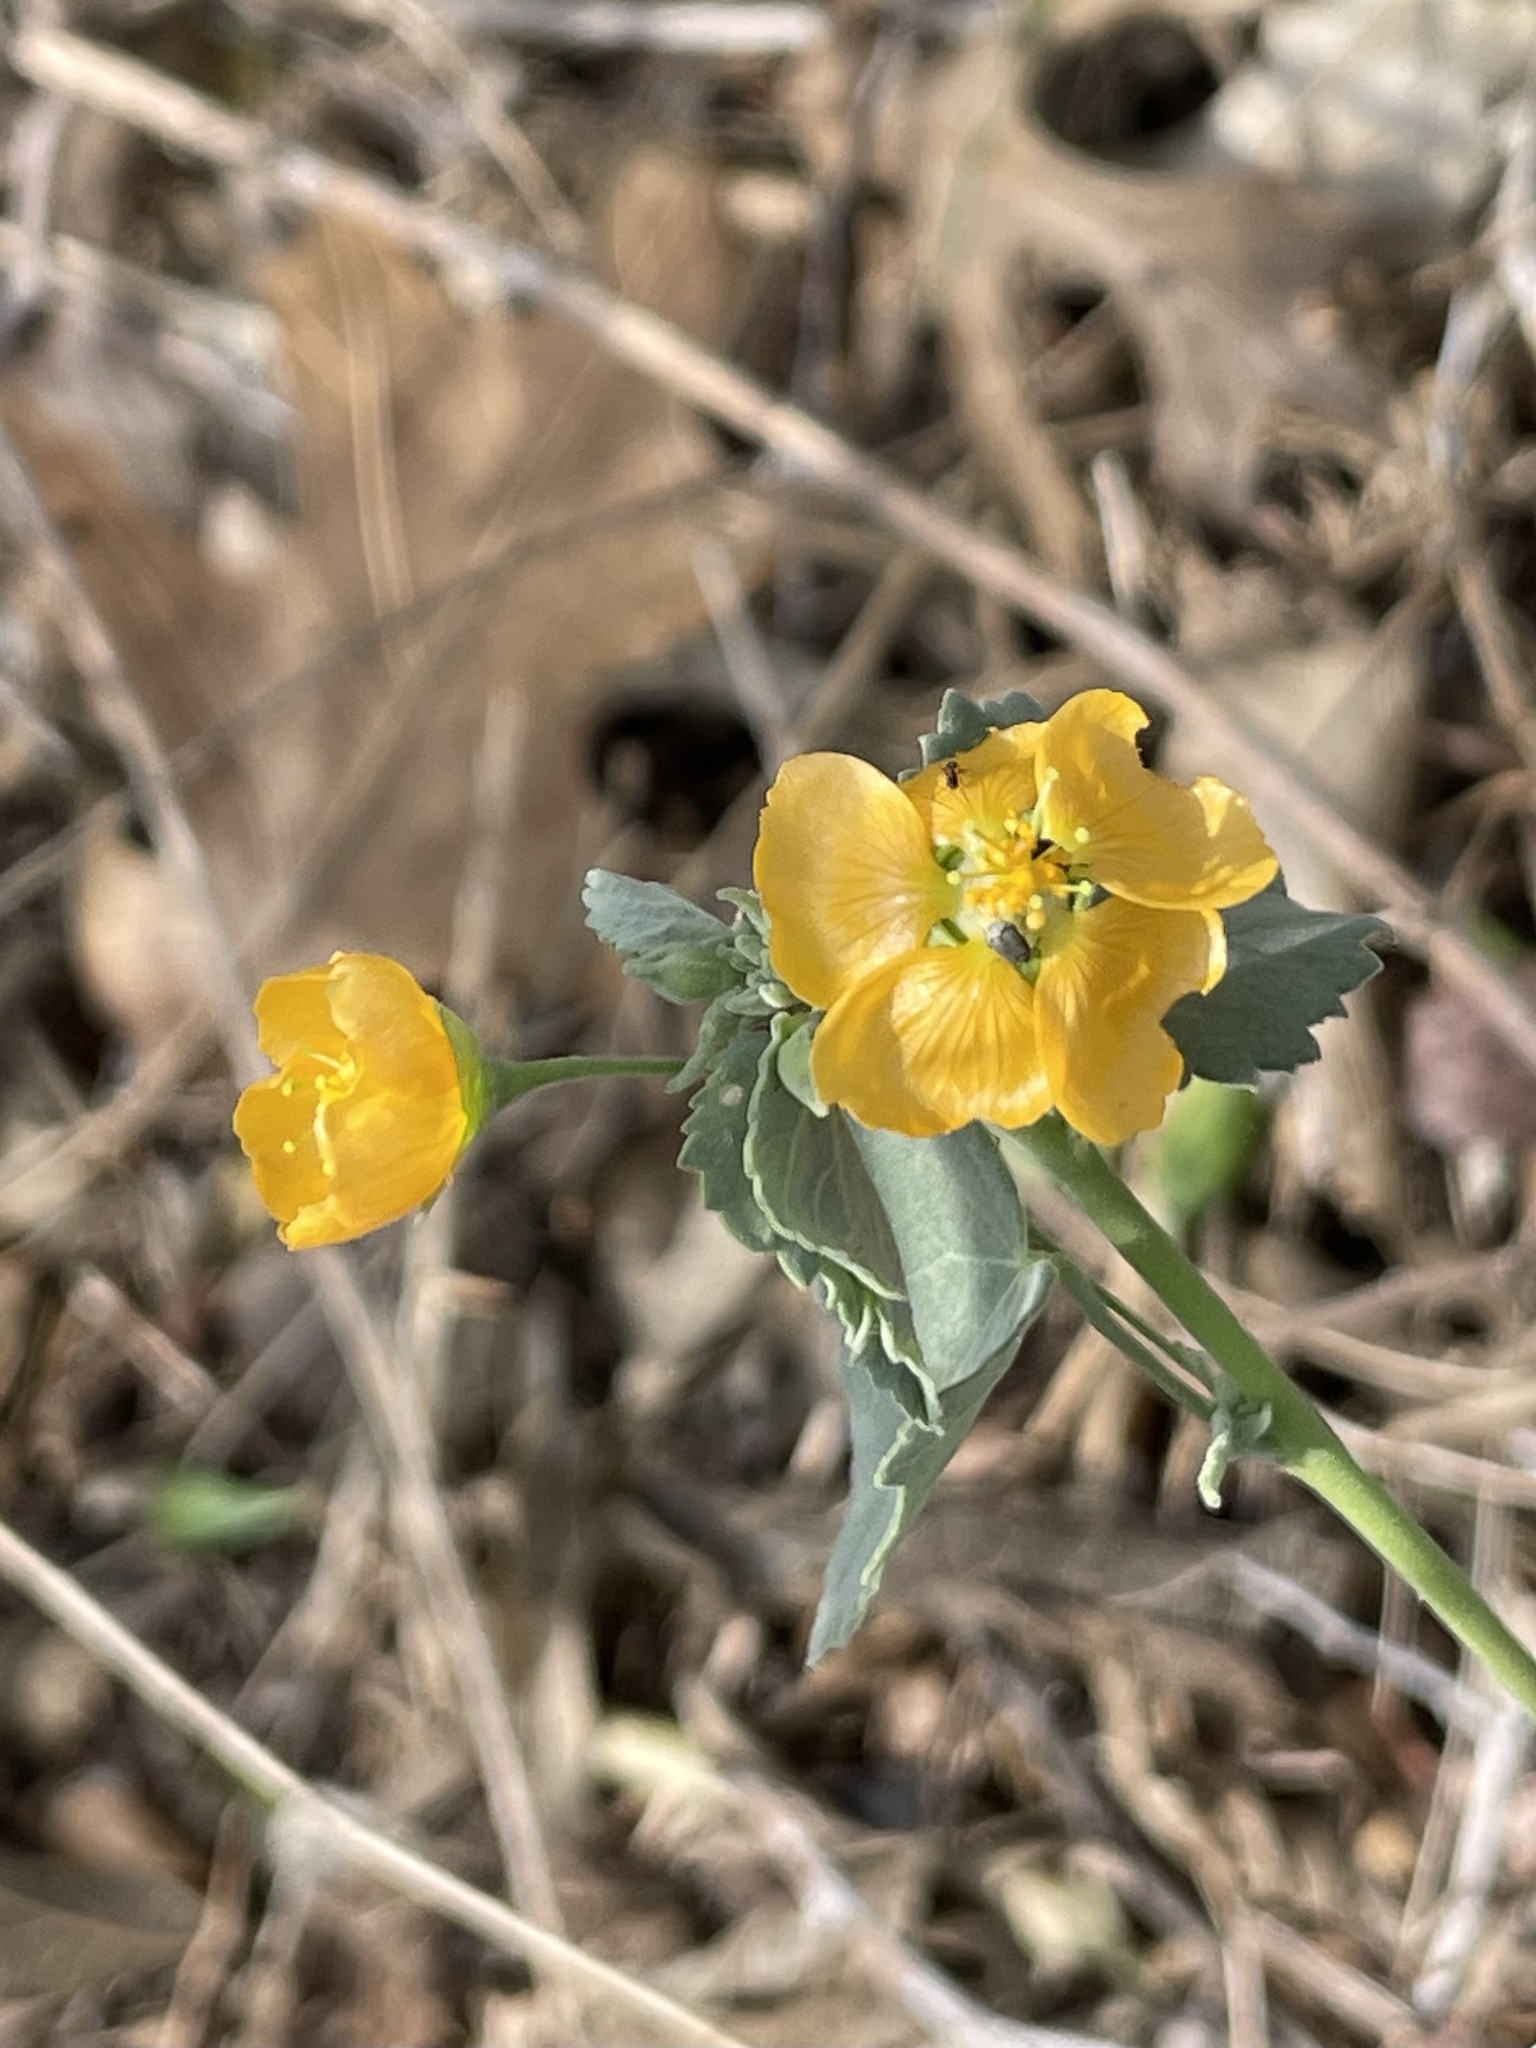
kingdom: Plantae
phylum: Tracheophyta
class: Magnoliopsida
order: Malvales
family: Malvaceae
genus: Abutilon
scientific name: Abutilon fruticosum
